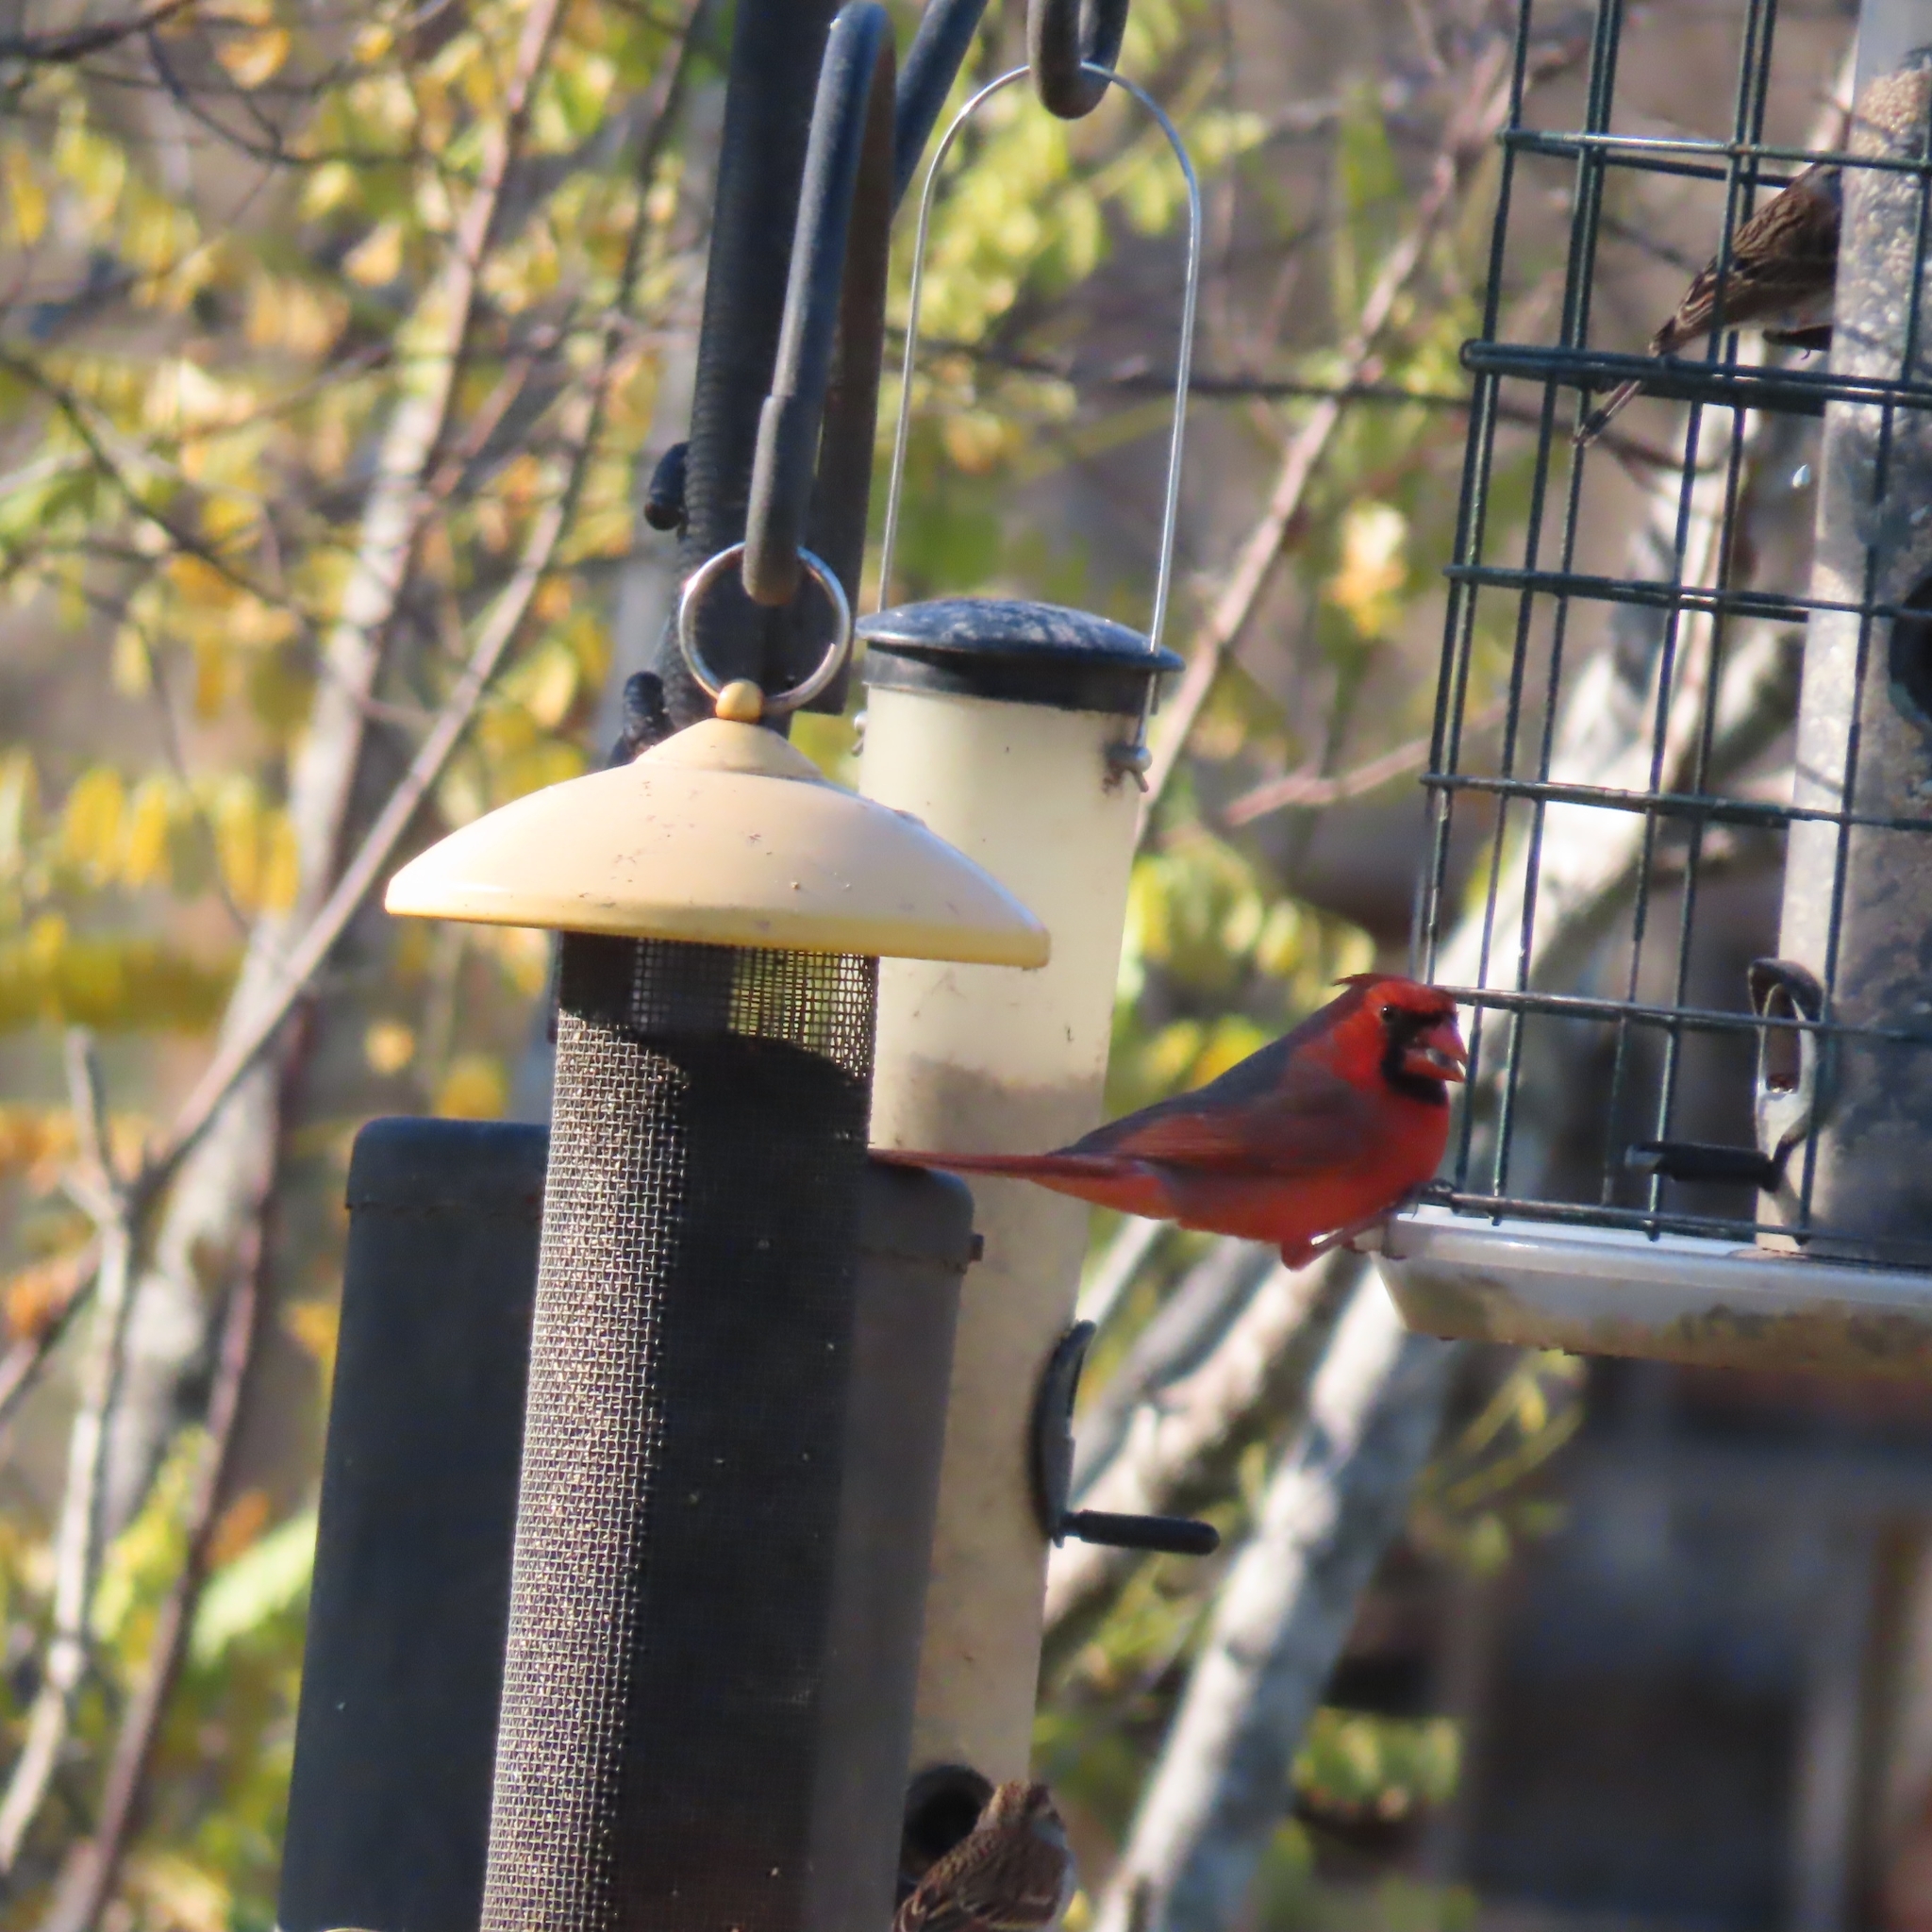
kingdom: Animalia
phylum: Chordata
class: Aves
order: Passeriformes
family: Cardinalidae
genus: Cardinalis
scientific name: Cardinalis cardinalis
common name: Northern cardinal
